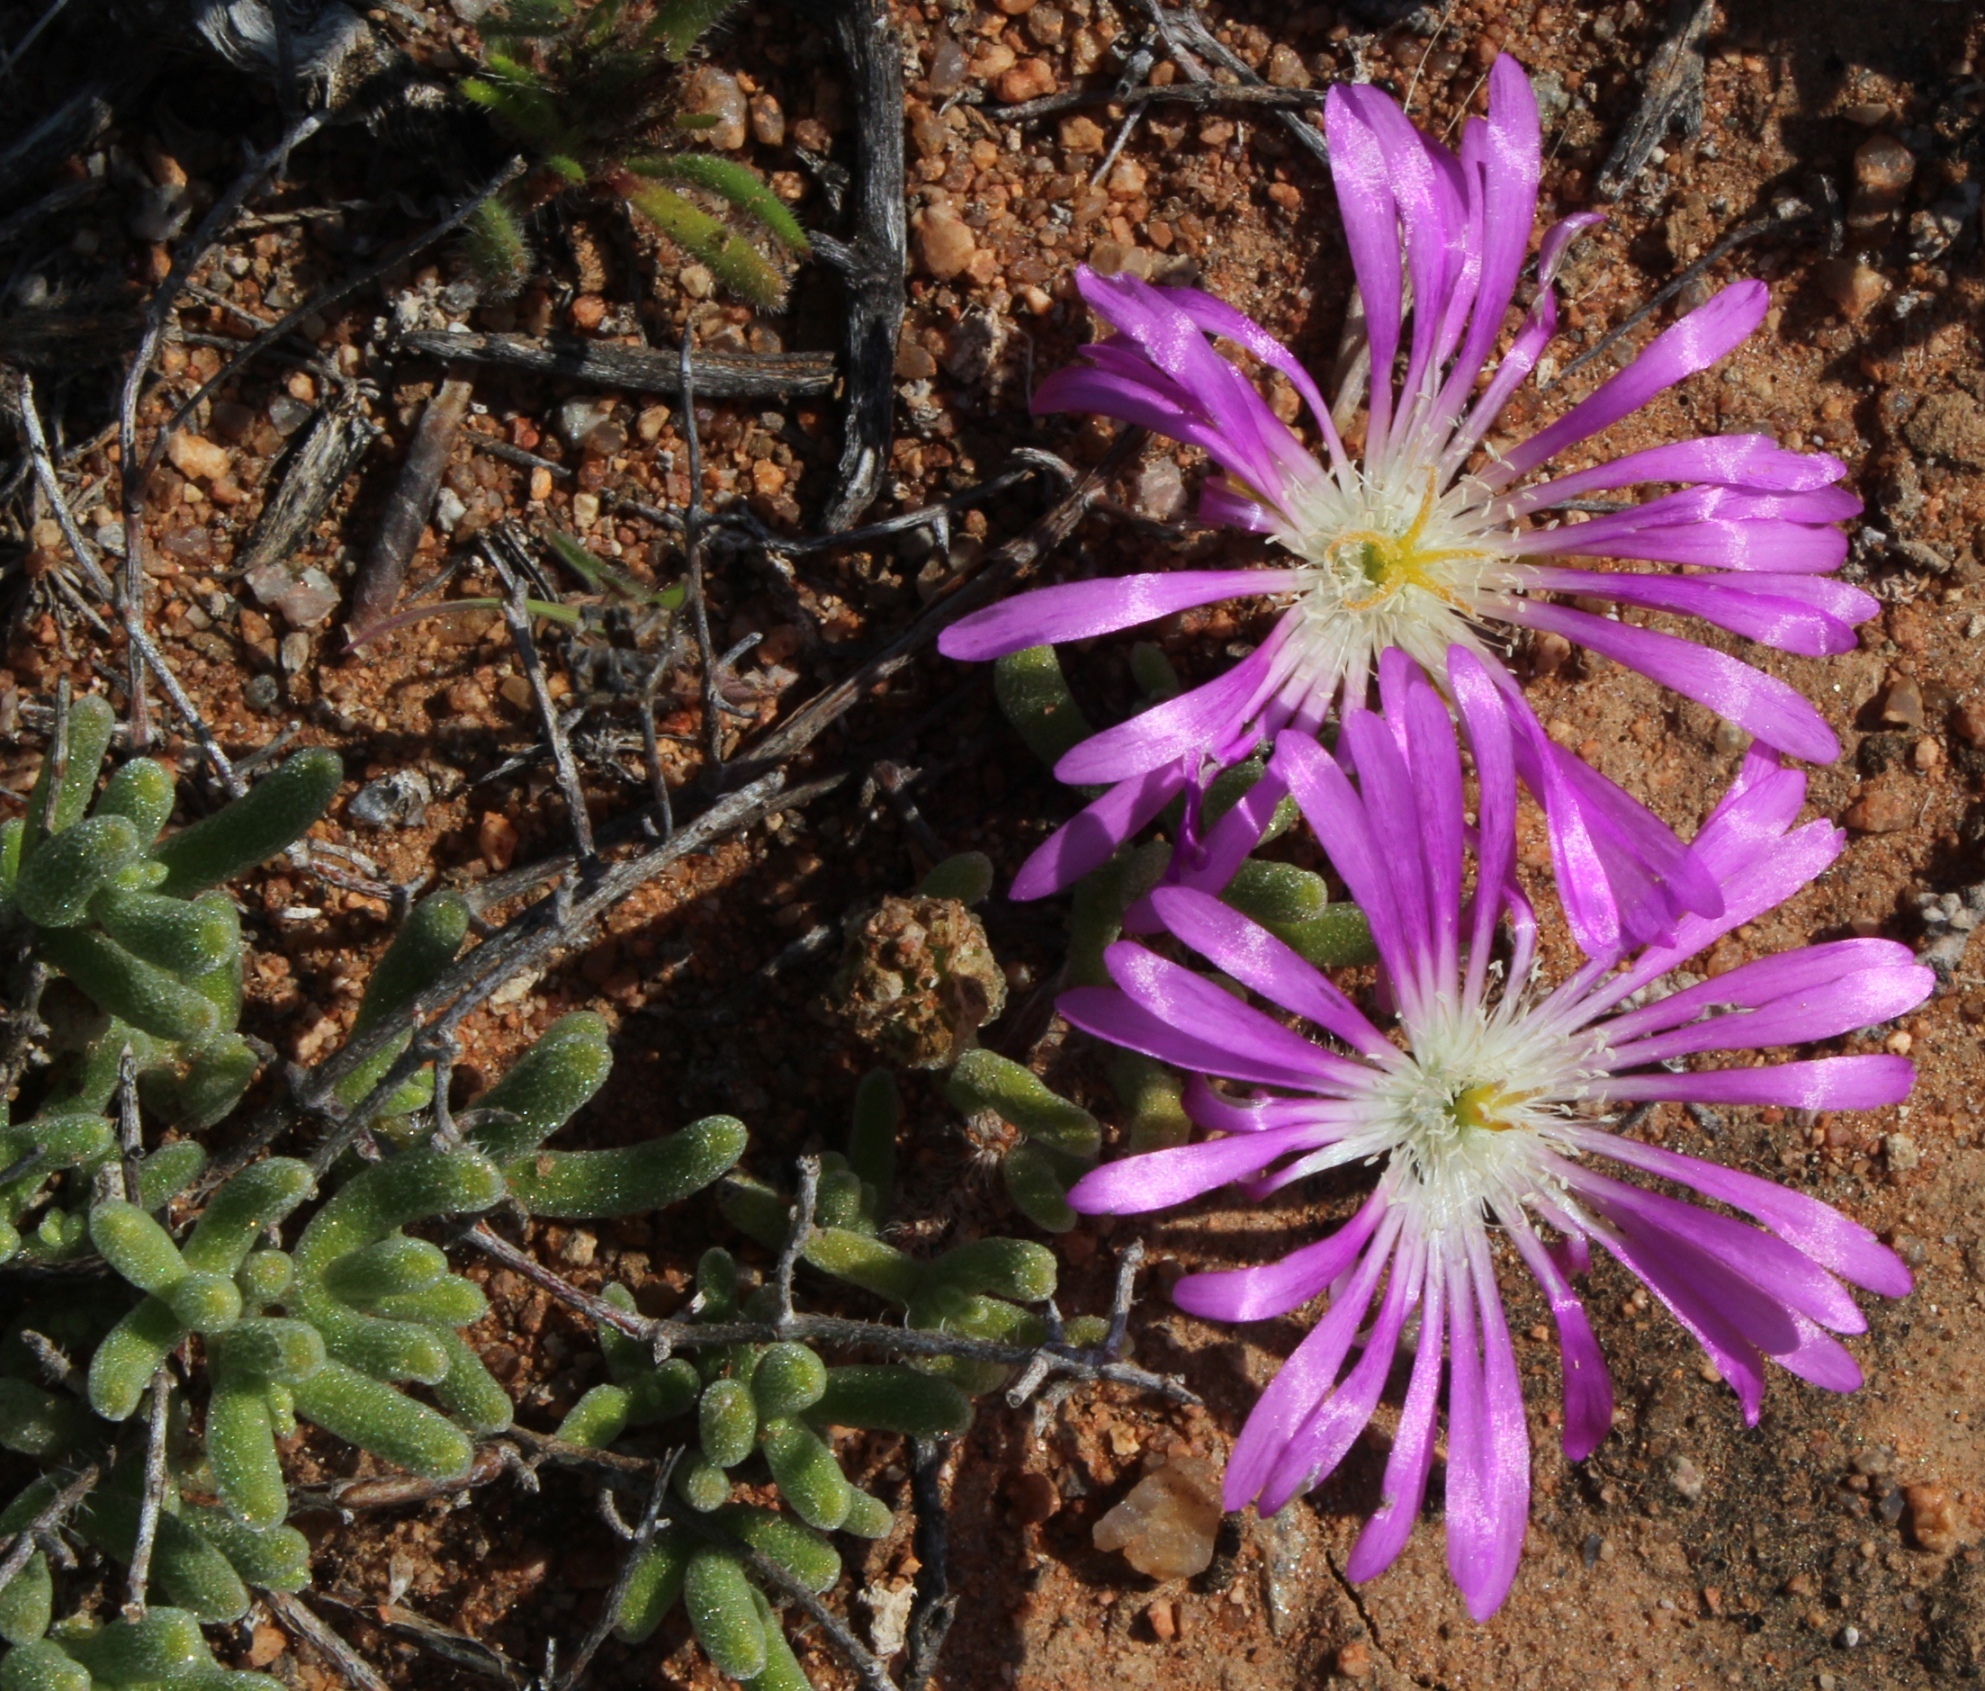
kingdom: Plantae
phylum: Tracheophyta
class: Magnoliopsida
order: Caryophyllales
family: Aizoaceae
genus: Drosanthemum
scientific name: Drosanthemum latipetalum
